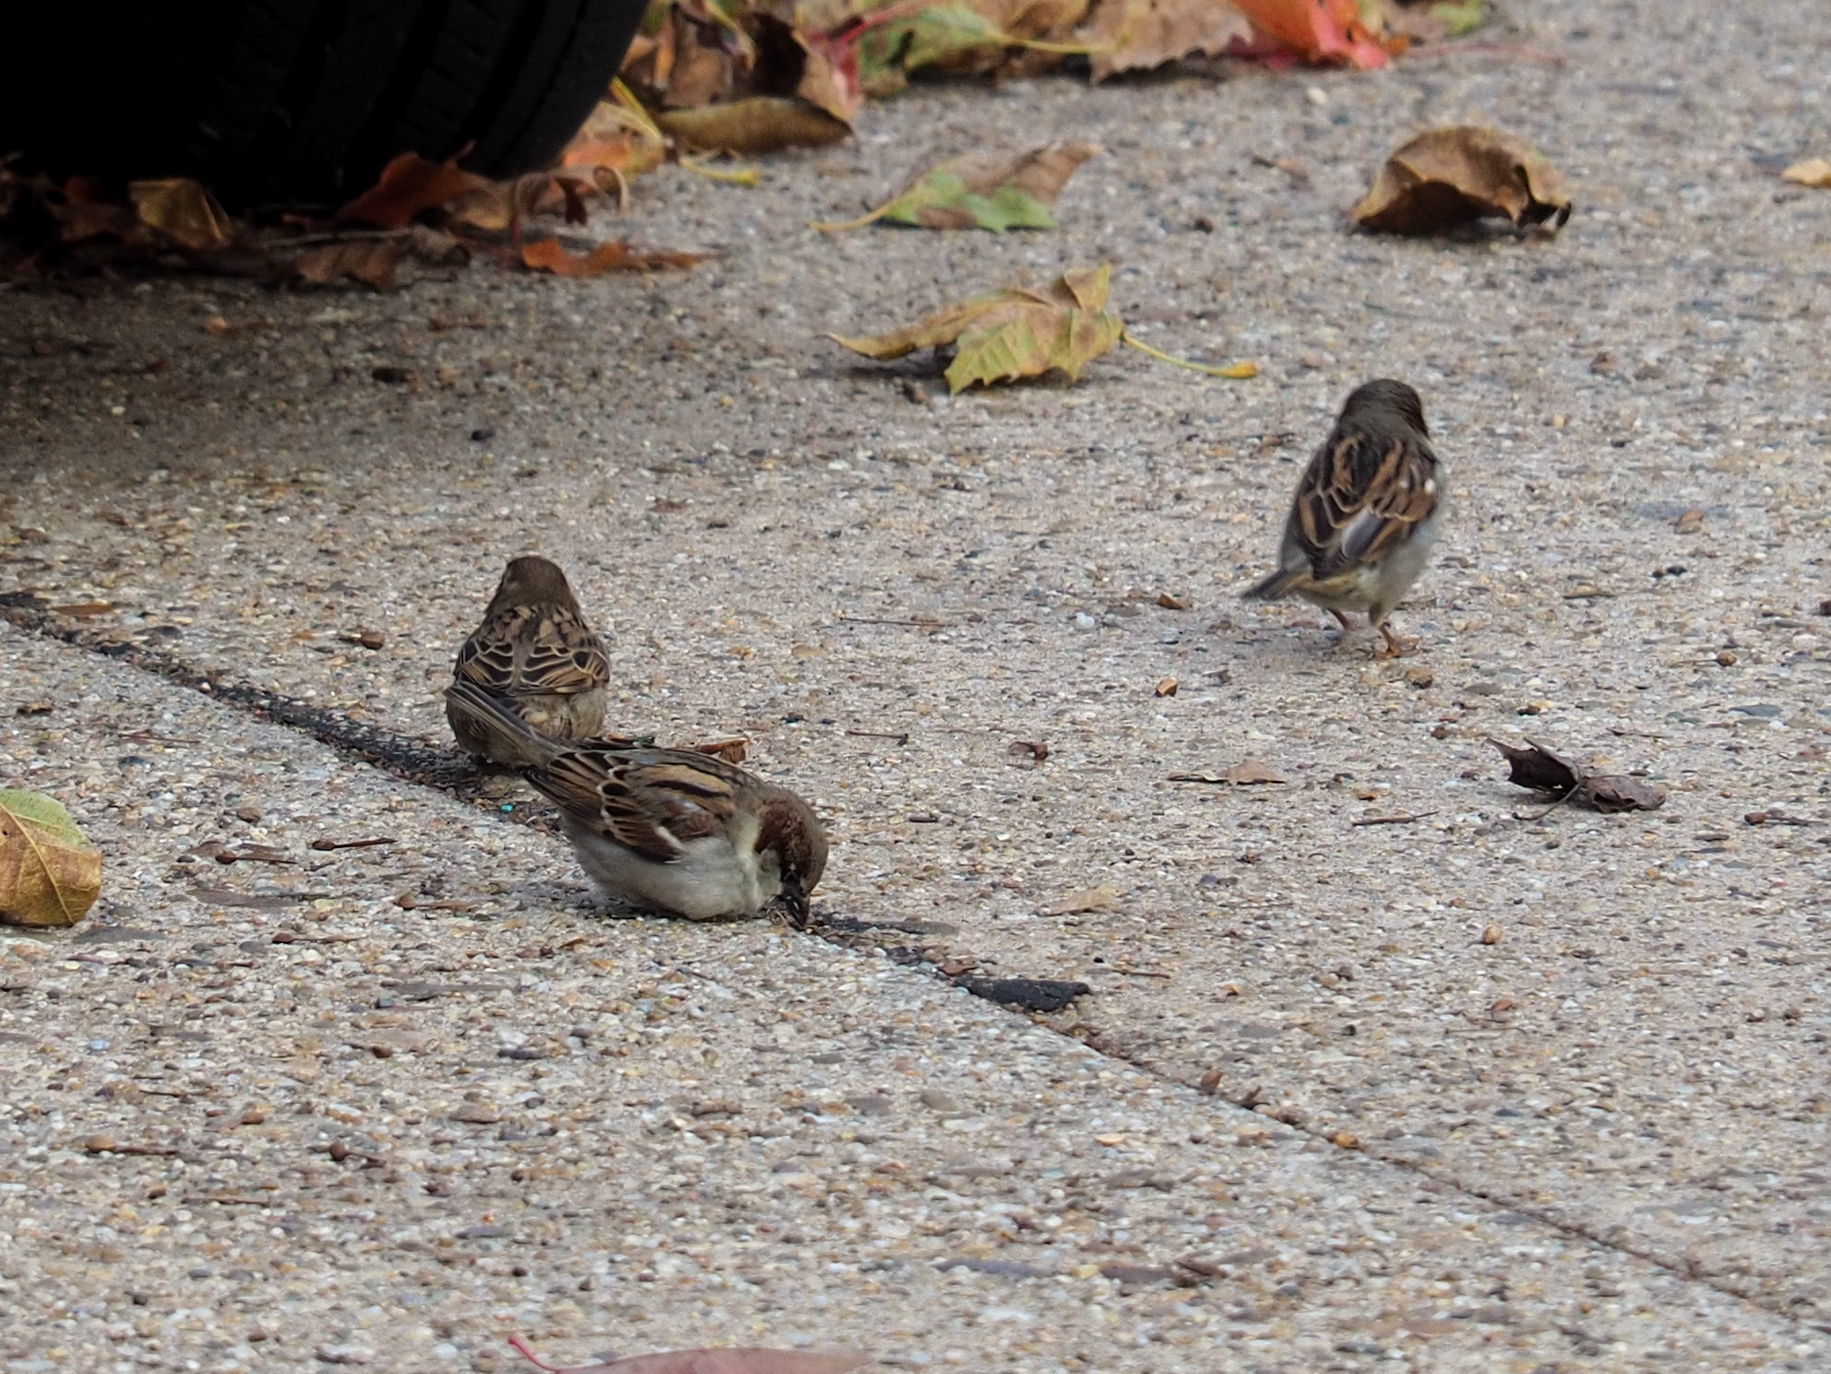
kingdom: Animalia
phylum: Chordata
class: Aves
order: Passeriformes
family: Passeridae
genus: Passer
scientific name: Passer domesticus
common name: House sparrow
